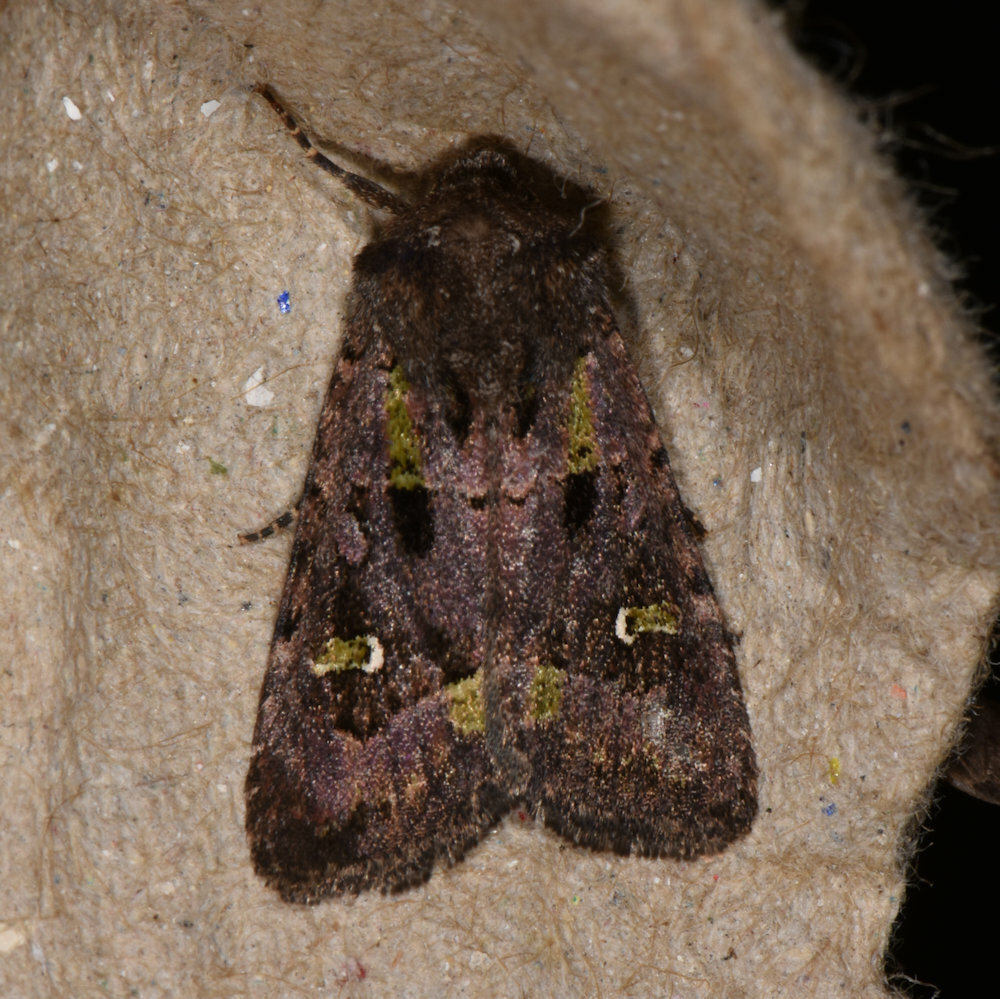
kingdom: Animalia
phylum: Arthropoda
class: Insecta
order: Lepidoptera
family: Noctuidae
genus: Lacinipolia
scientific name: Lacinipolia renigera
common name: Kidney-spotted minor
